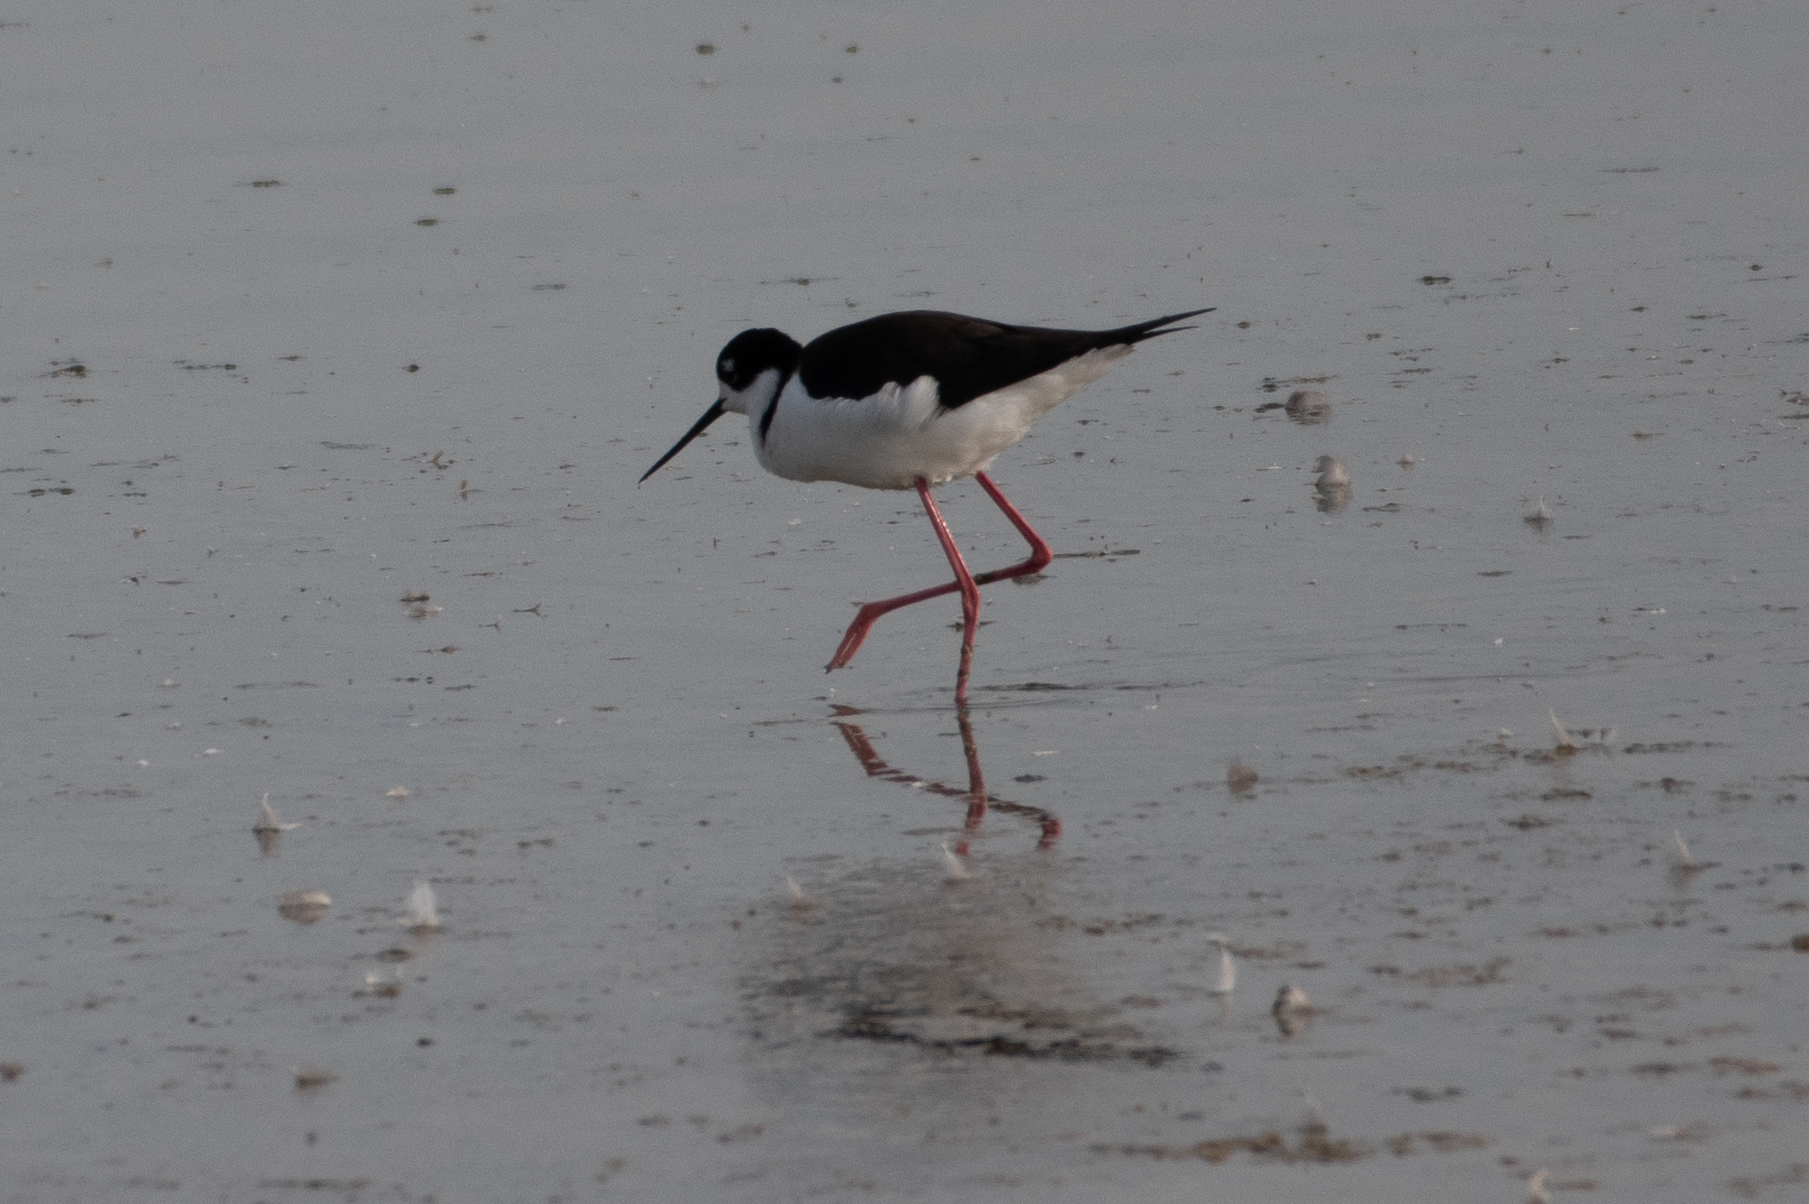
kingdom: Animalia
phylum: Chordata
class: Aves
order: Charadriiformes
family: Recurvirostridae
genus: Himantopus
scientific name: Himantopus mexicanus
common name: Black-necked stilt
